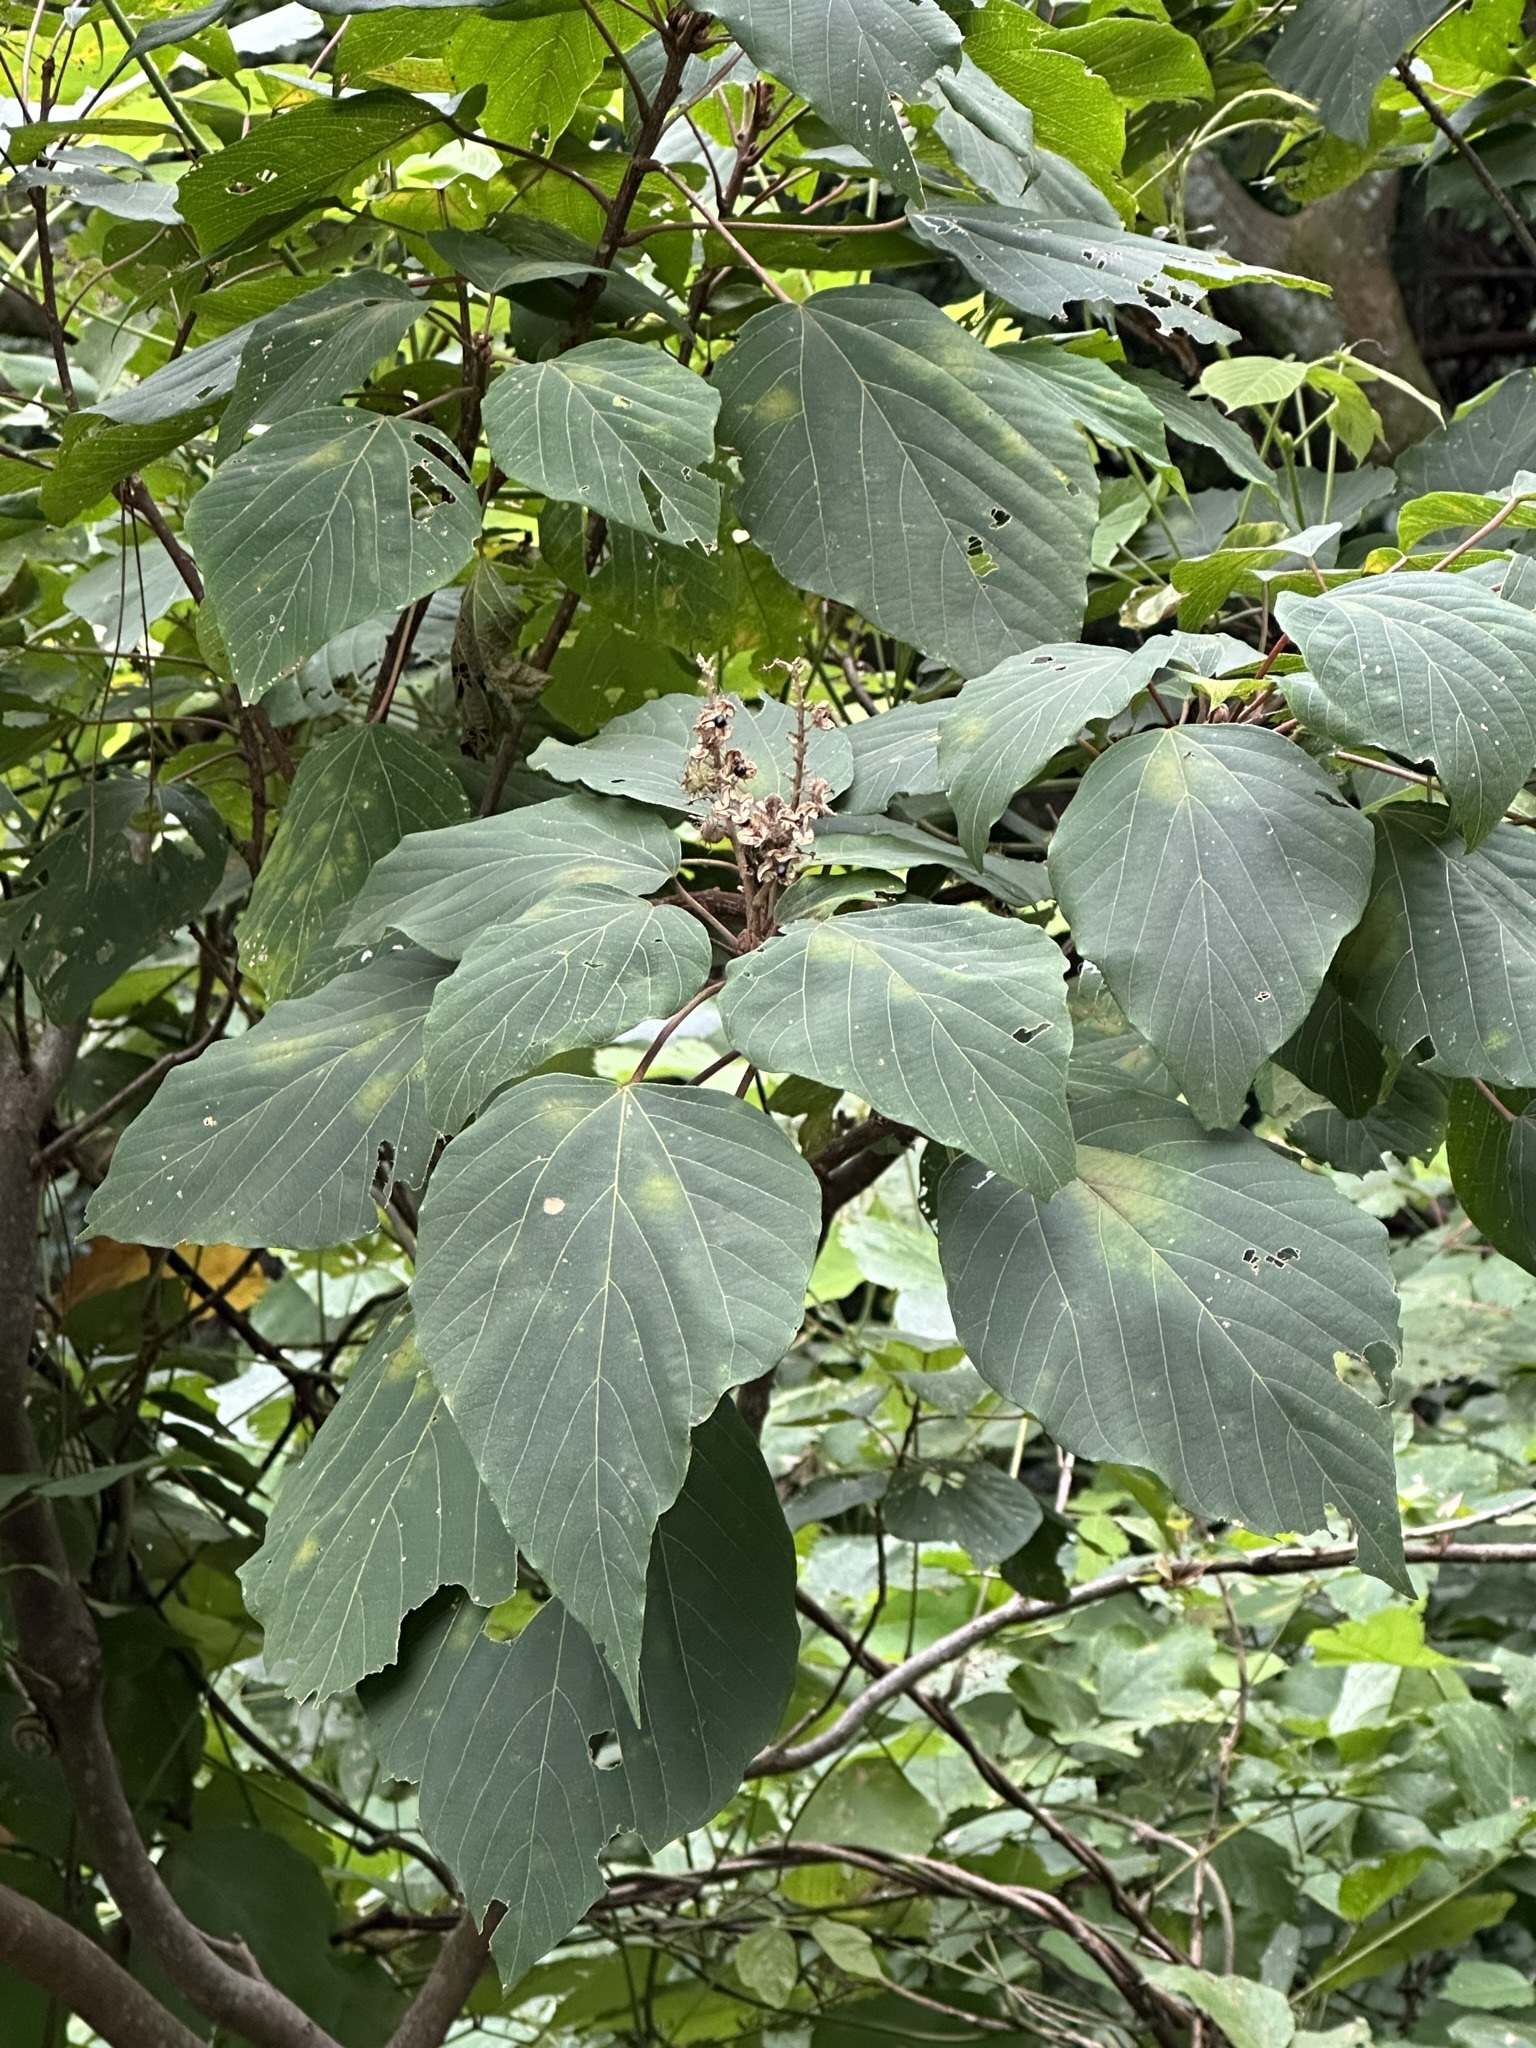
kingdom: Plantae
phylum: Tracheophyta
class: Magnoliopsida
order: Malpighiales
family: Euphorbiaceae
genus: Mallotus
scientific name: Mallotus japonicus
